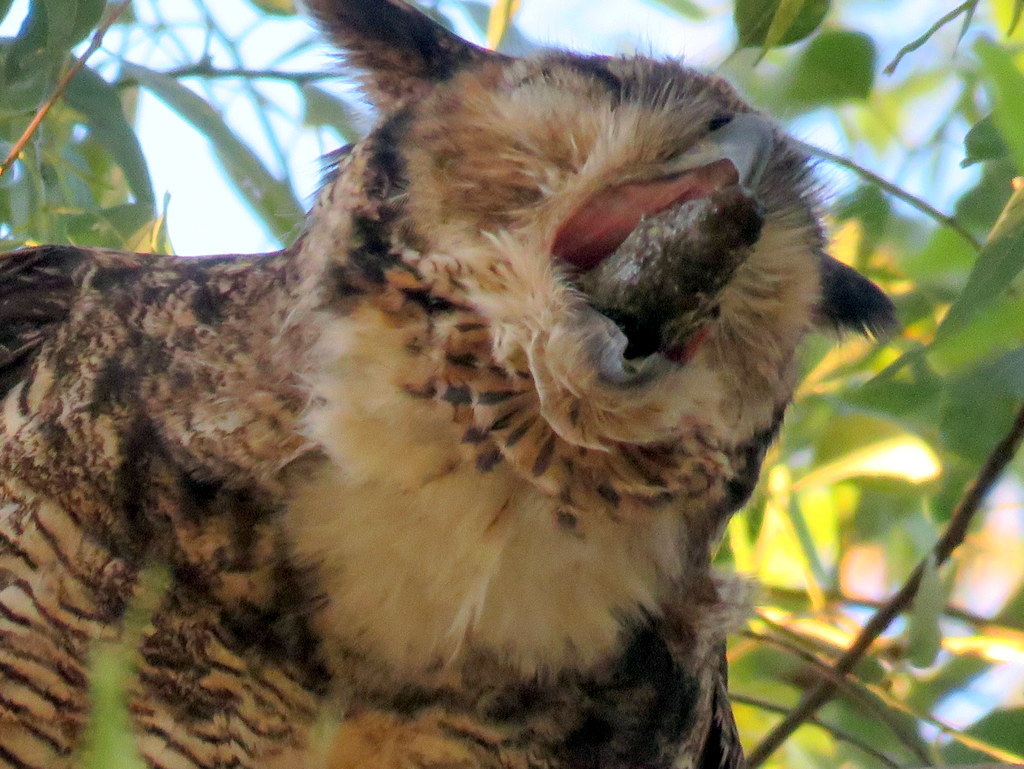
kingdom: Animalia
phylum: Chordata
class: Aves
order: Strigiformes
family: Strigidae
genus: Bubo
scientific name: Bubo virginianus
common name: Great horned owl
